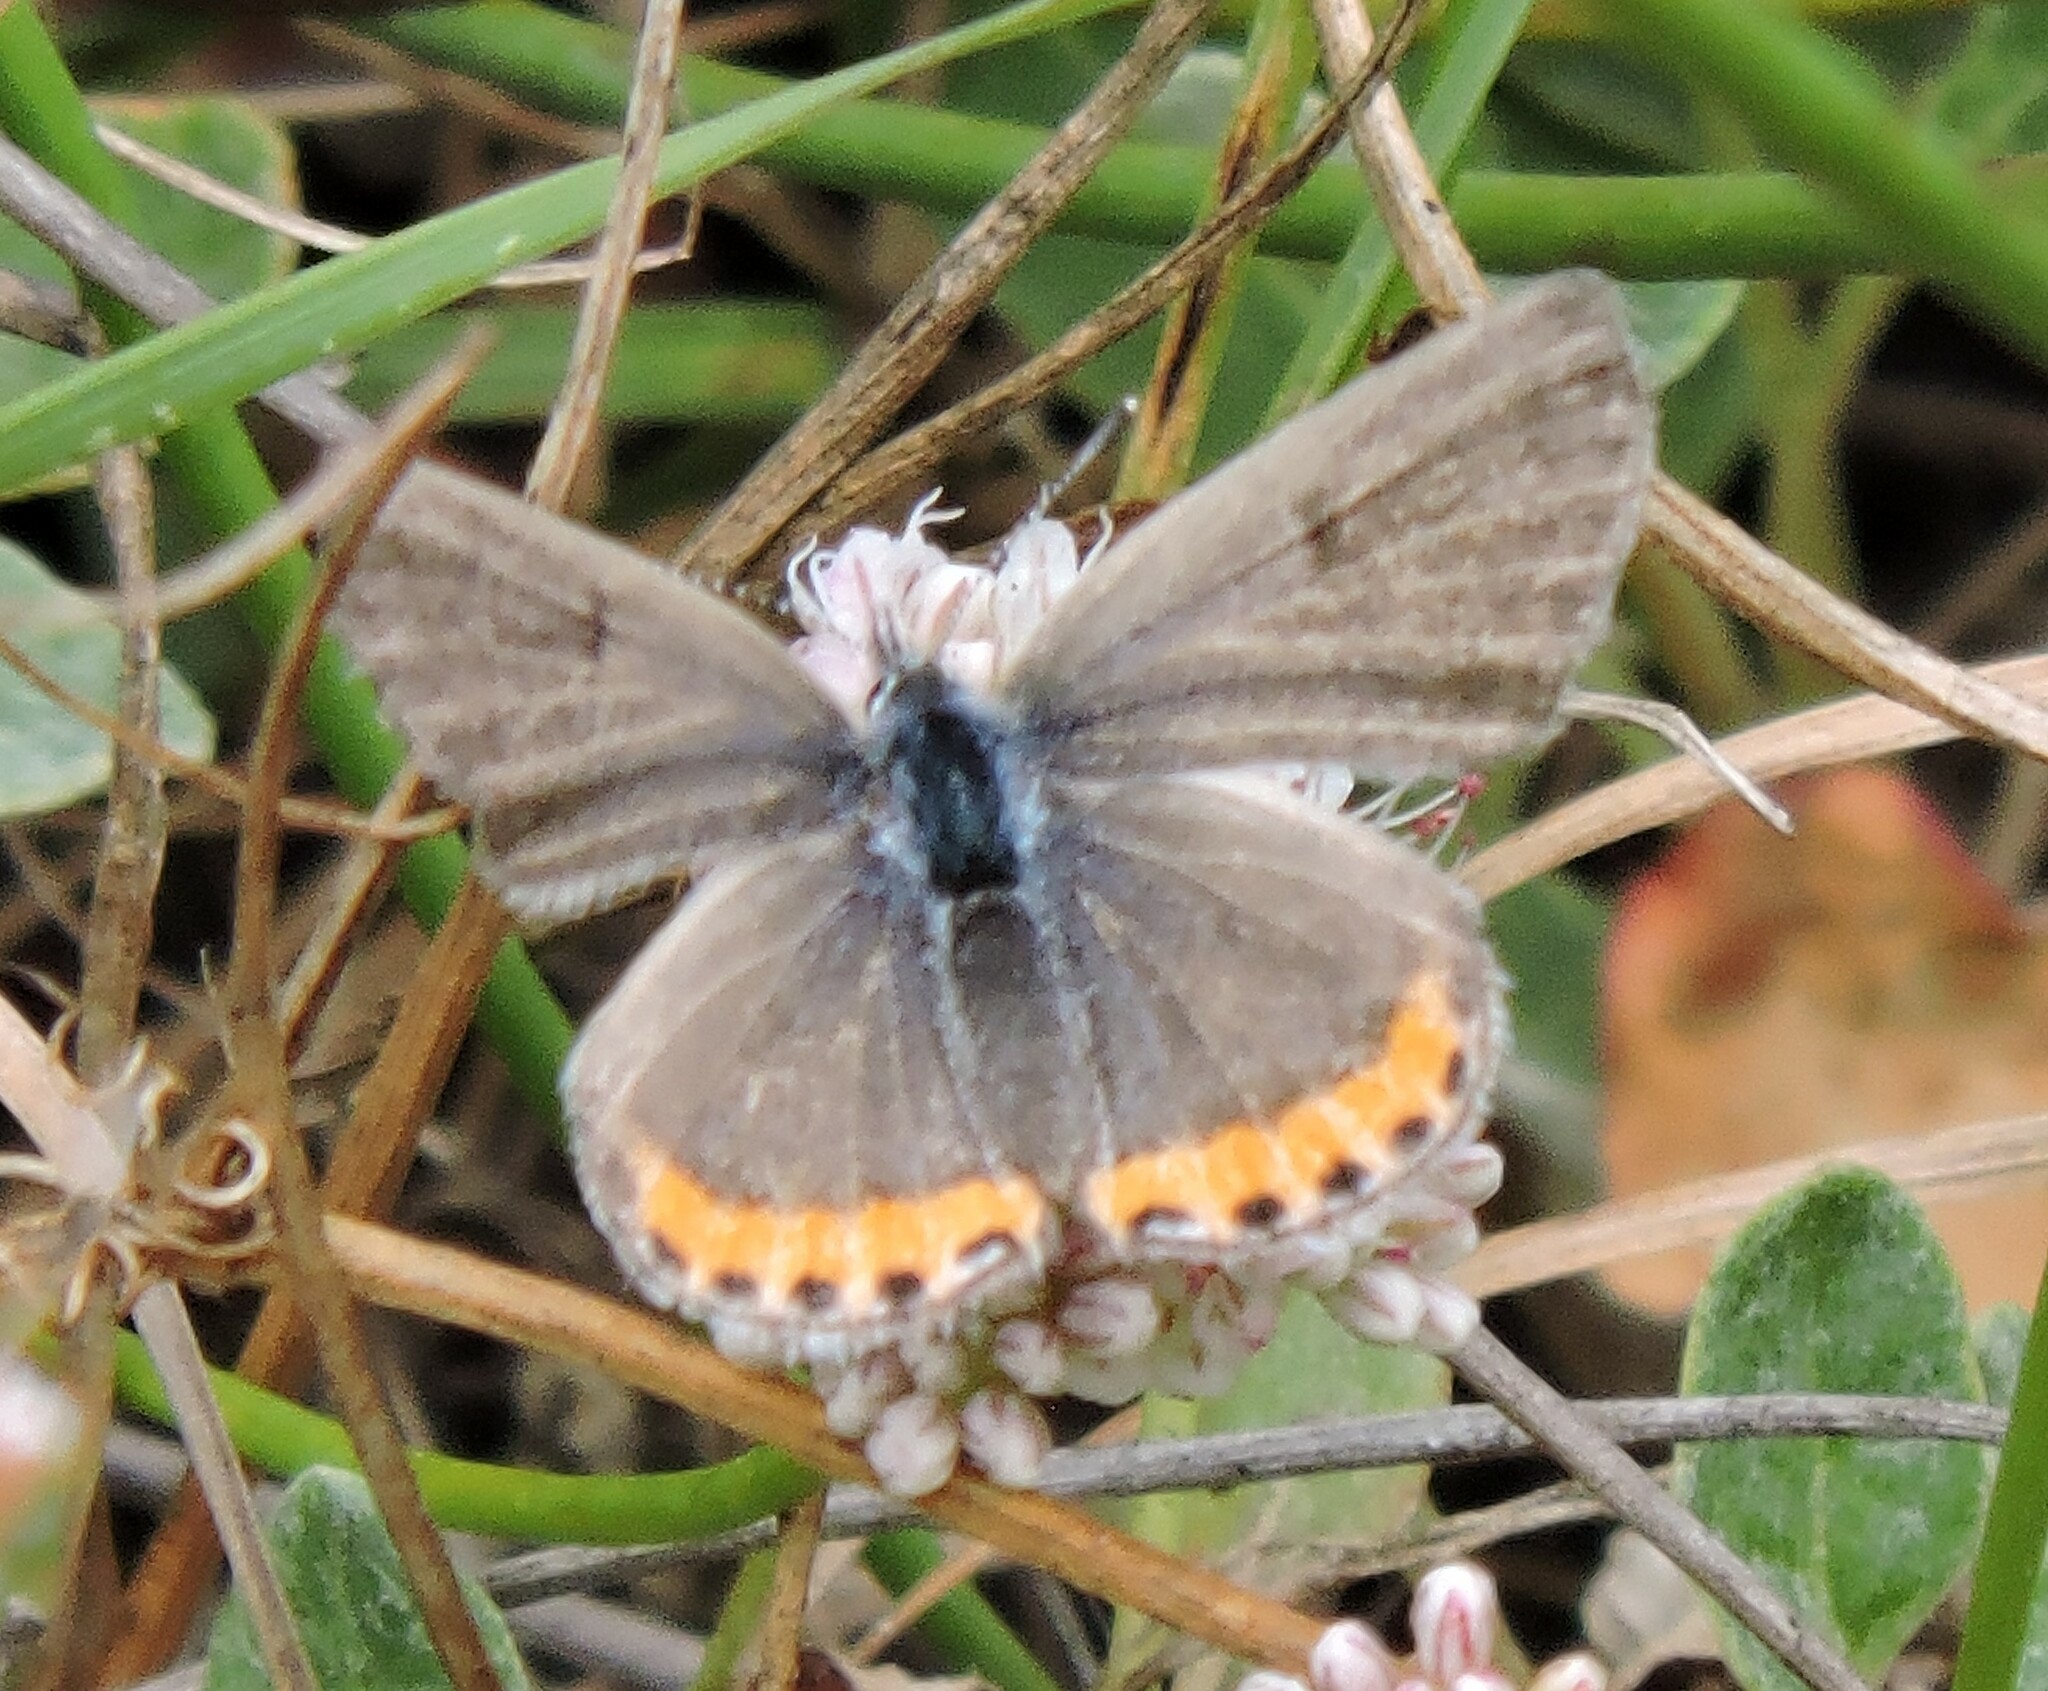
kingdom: Animalia
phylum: Arthropoda
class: Insecta
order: Lepidoptera
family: Lycaenidae
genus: Icaricia
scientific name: Icaricia acmon
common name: Acmon blue
